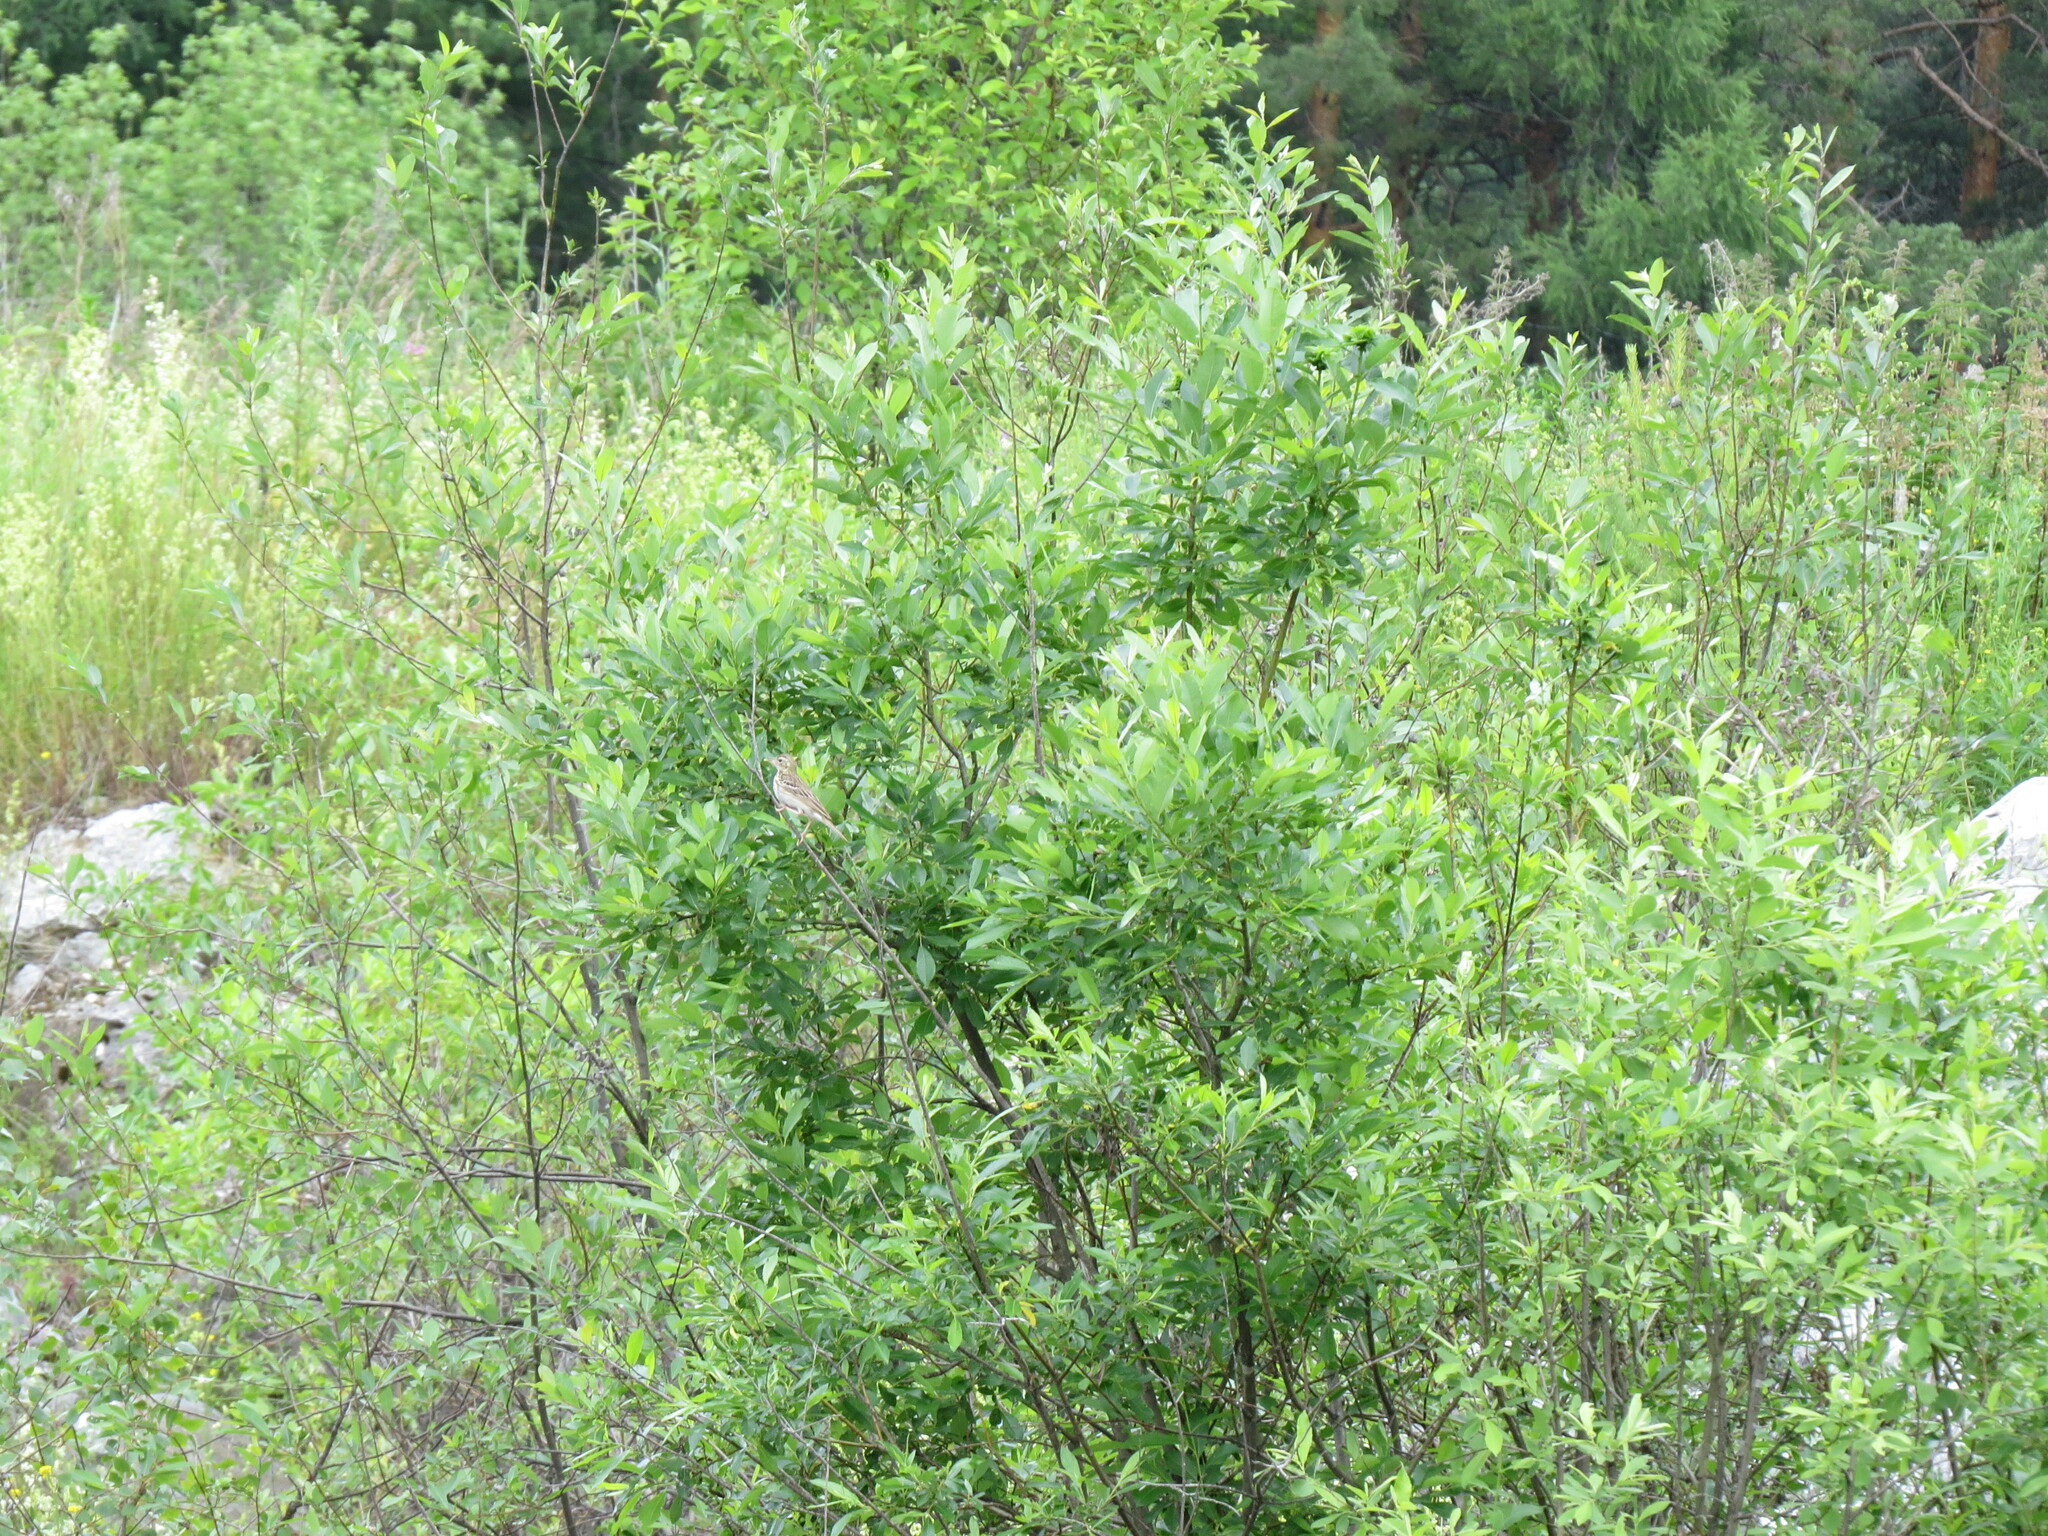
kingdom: Animalia
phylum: Chordata
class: Aves
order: Passeriformes
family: Motacillidae
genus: Anthus
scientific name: Anthus trivialis
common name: Tree pipit
